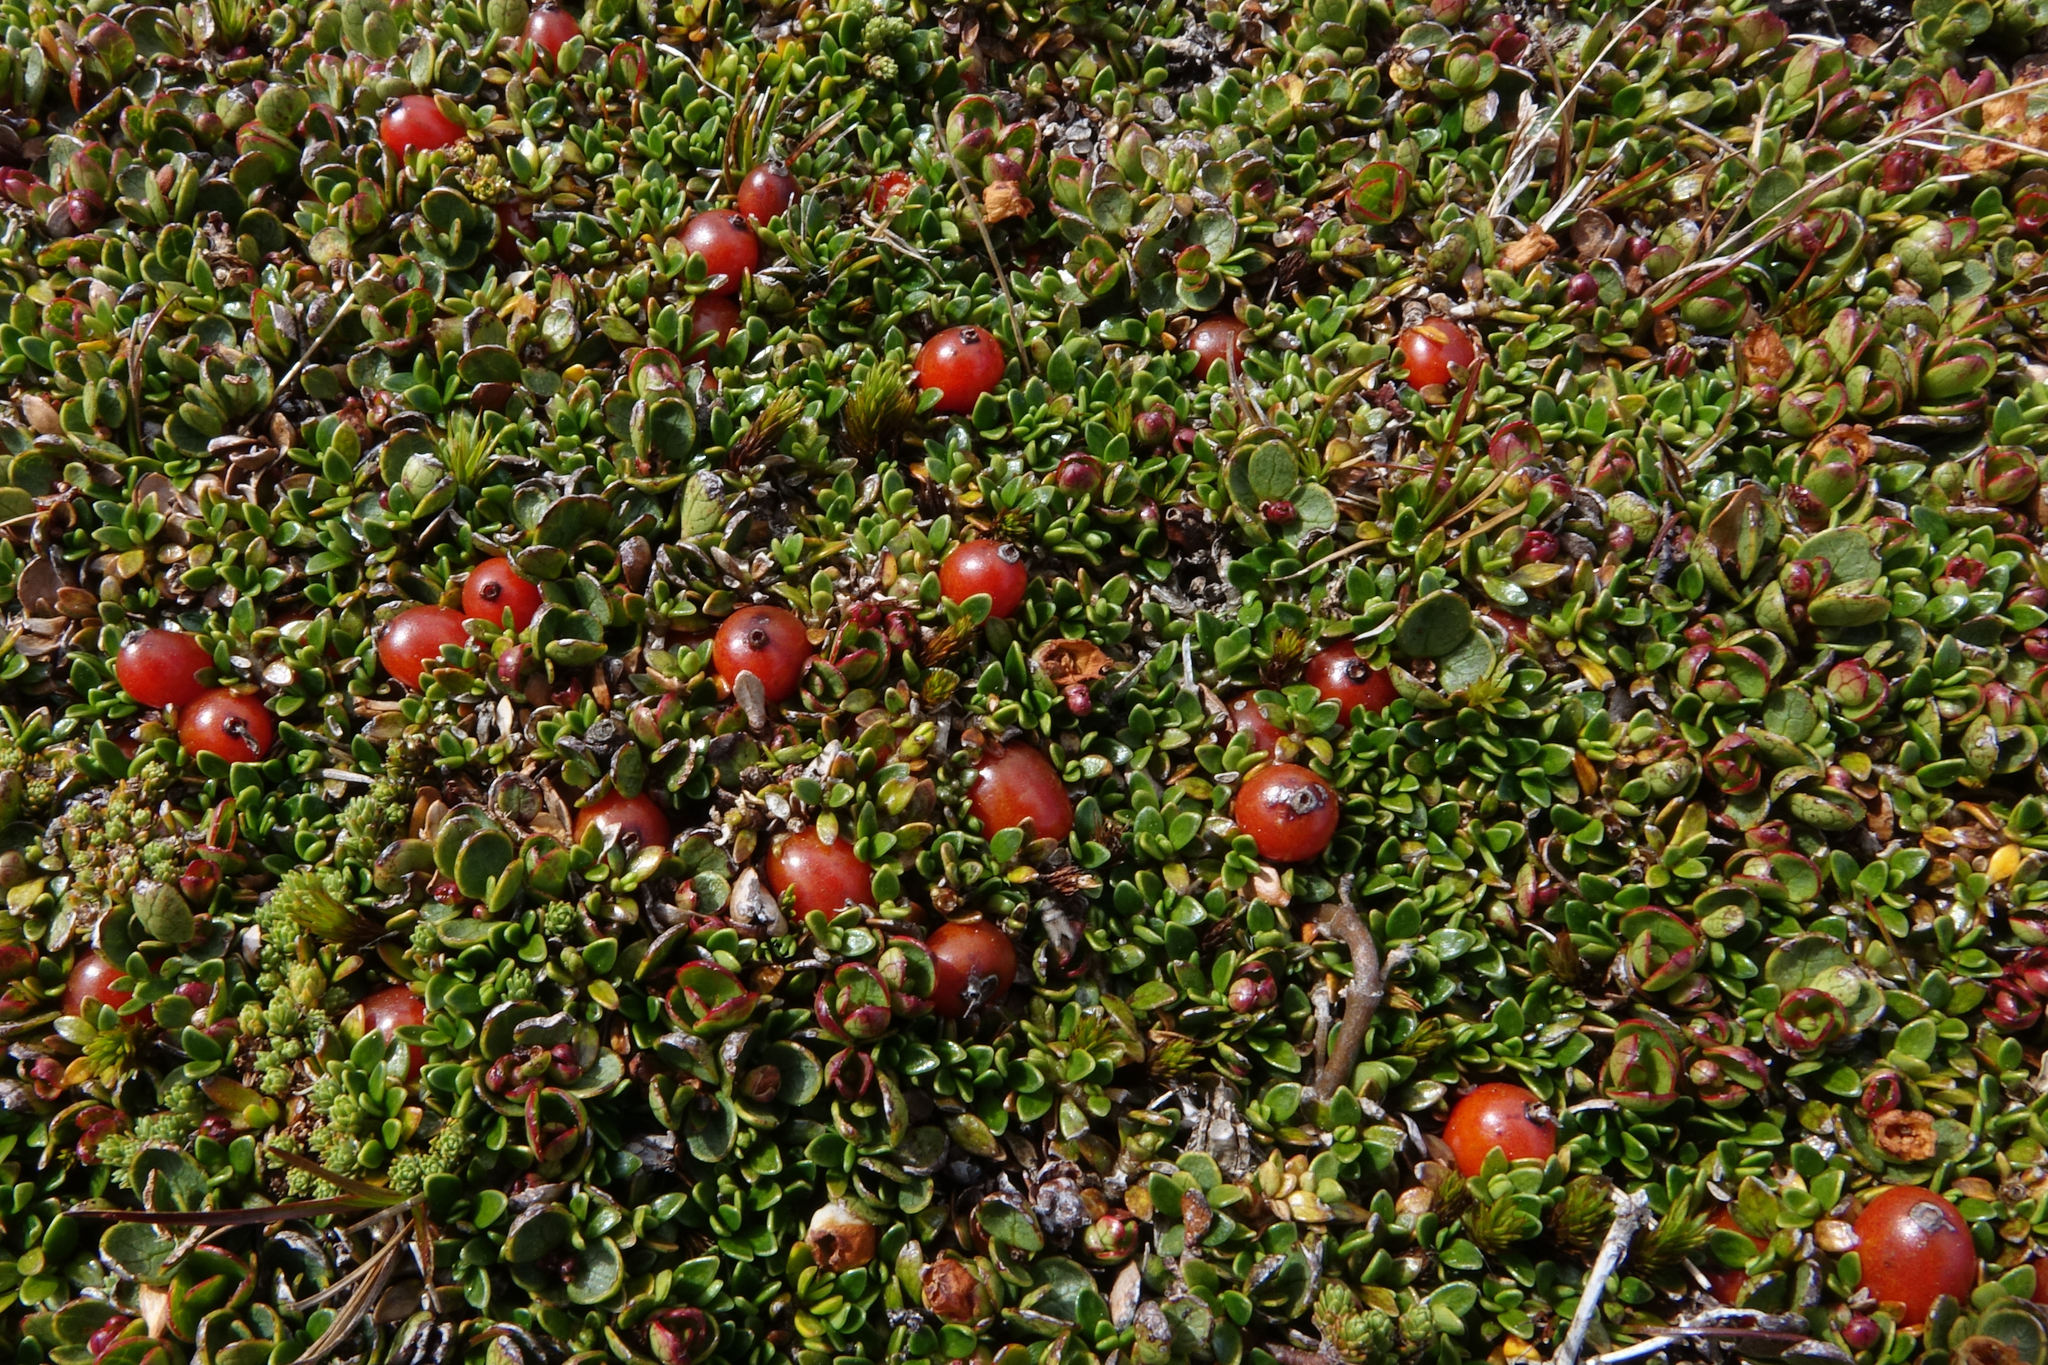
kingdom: Plantae
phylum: Tracheophyta
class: Magnoliopsida
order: Gentianales
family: Rubiaceae
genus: Coprosma
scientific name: Coprosma perpusilla
